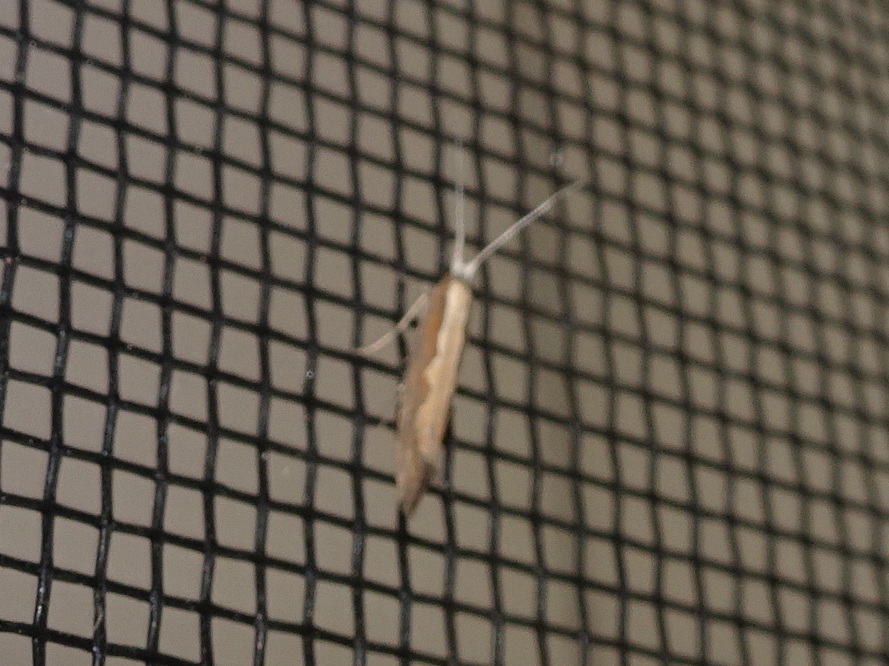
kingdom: Animalia
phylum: Arthropoda
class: Insecta
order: Lepidoptera
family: Plutellidae
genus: Plutella
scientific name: Plutella xylostella
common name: Diamond-back moth
